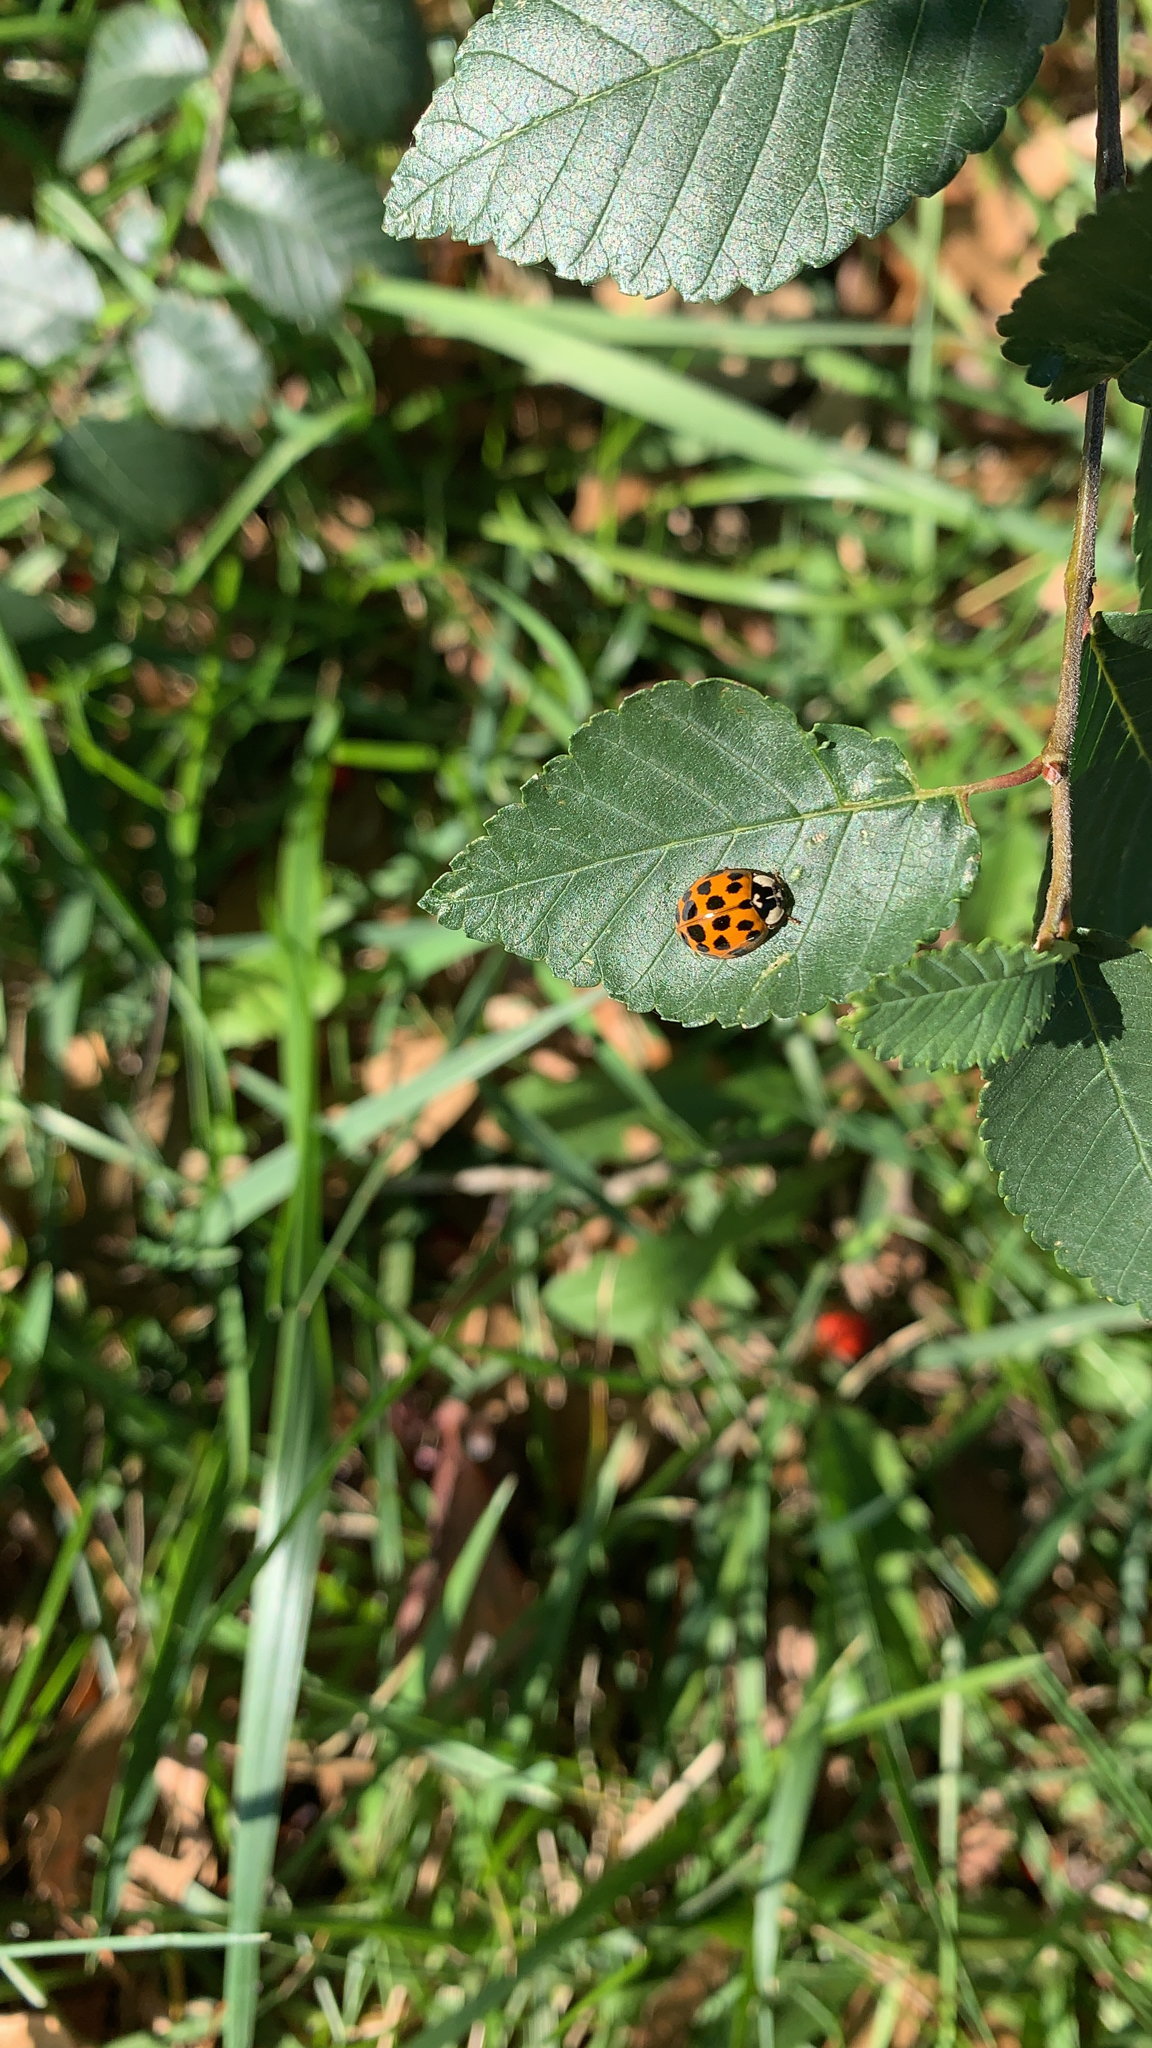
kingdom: Animalia
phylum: Arthropoda
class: Insecta
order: Coleoptera
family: Coccinellidae
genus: Harmonia
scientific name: Harmonia axyridis
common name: Harlequin ladybird
